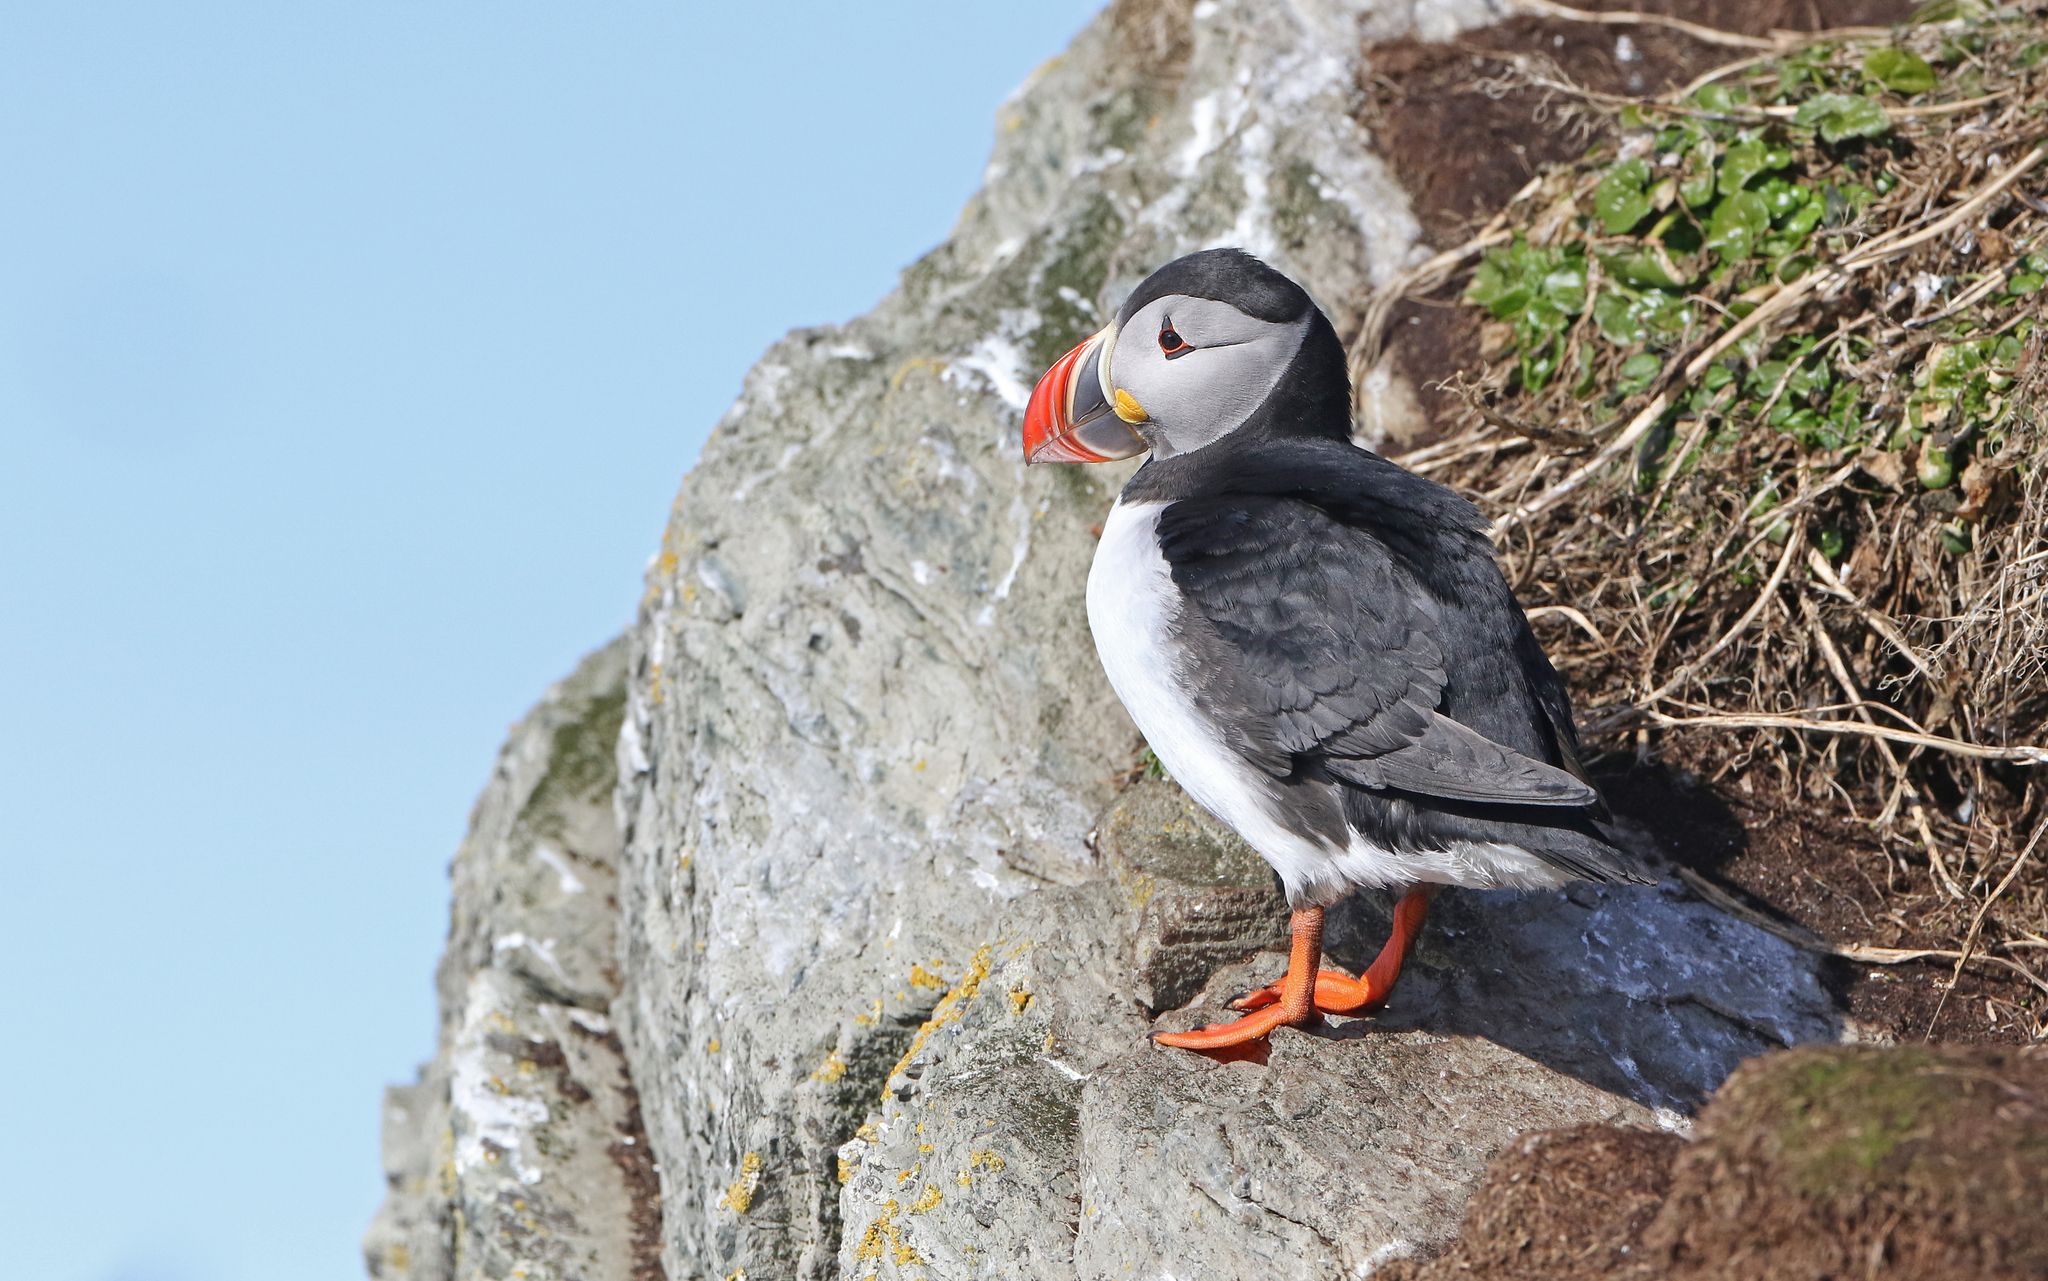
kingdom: Animalia
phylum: Chordata
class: Aves
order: Charadriiformes
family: Alcidae
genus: Fratercula
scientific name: Fratercula arctica
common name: Atlantic puffin
